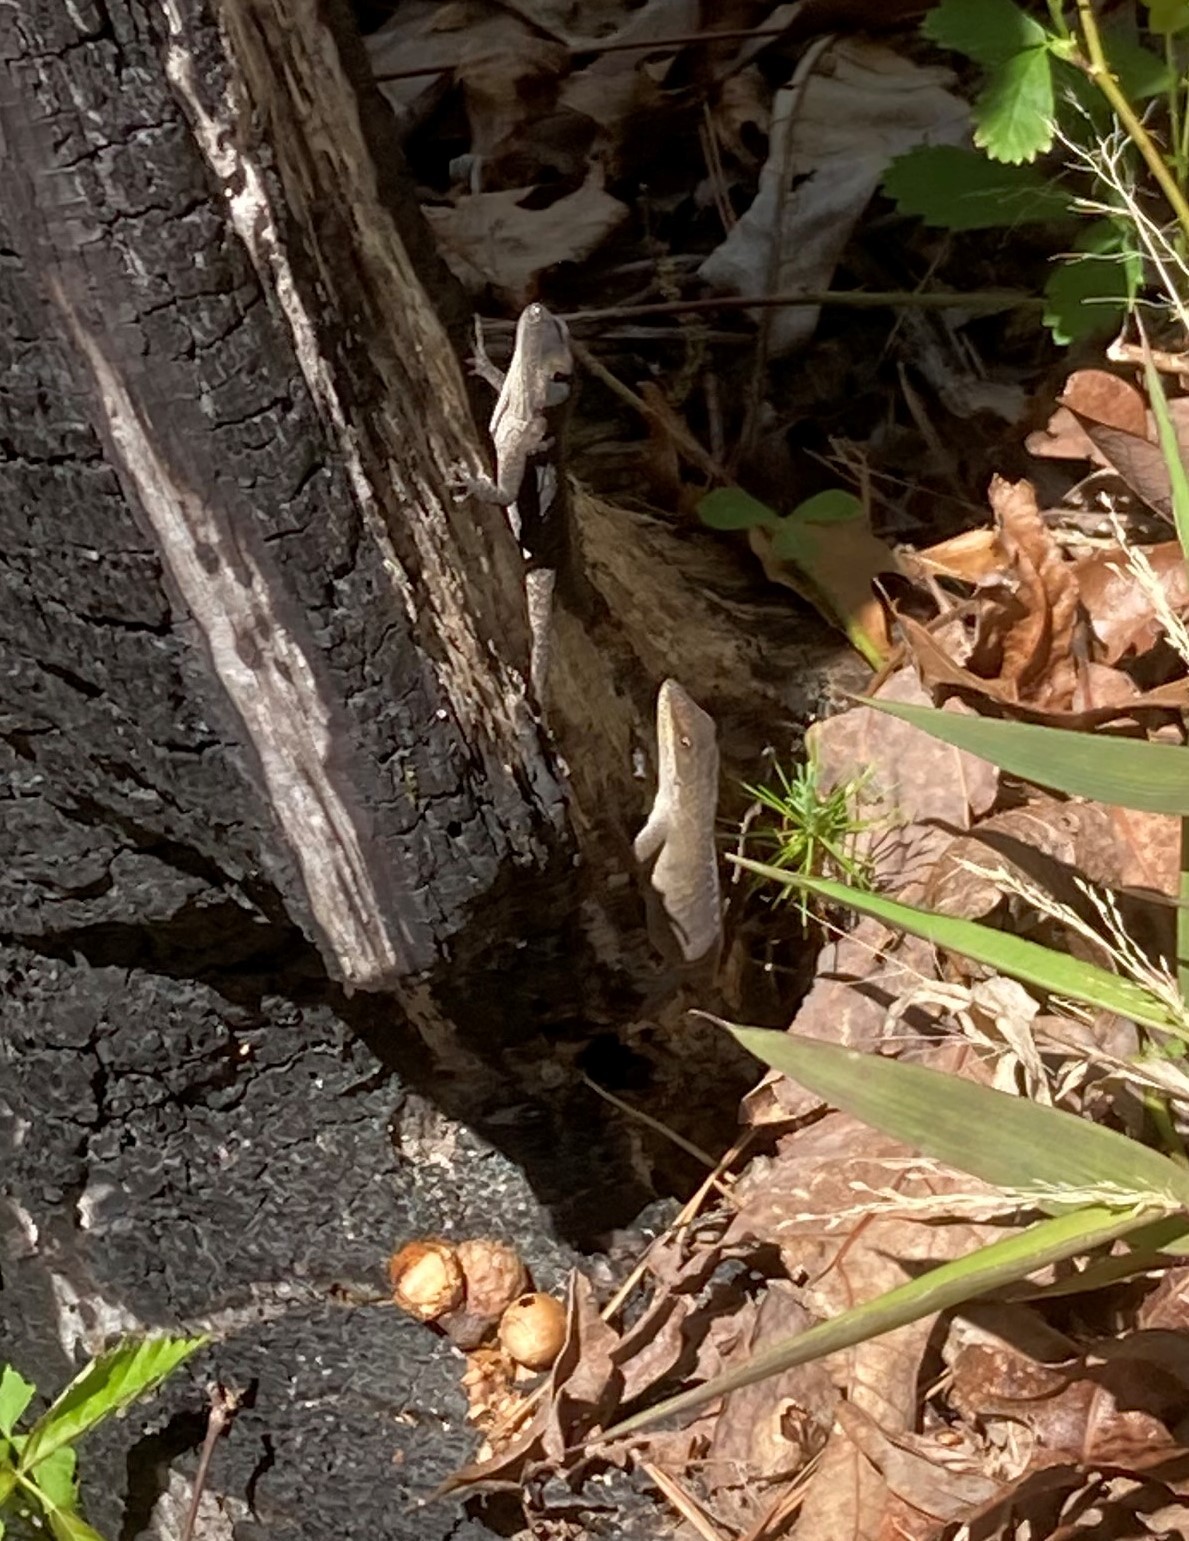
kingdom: Animalia
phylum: Chordata
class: Squamata
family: Dactyloidae
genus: Anolis
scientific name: Anolis carolinensis
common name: Green anole
